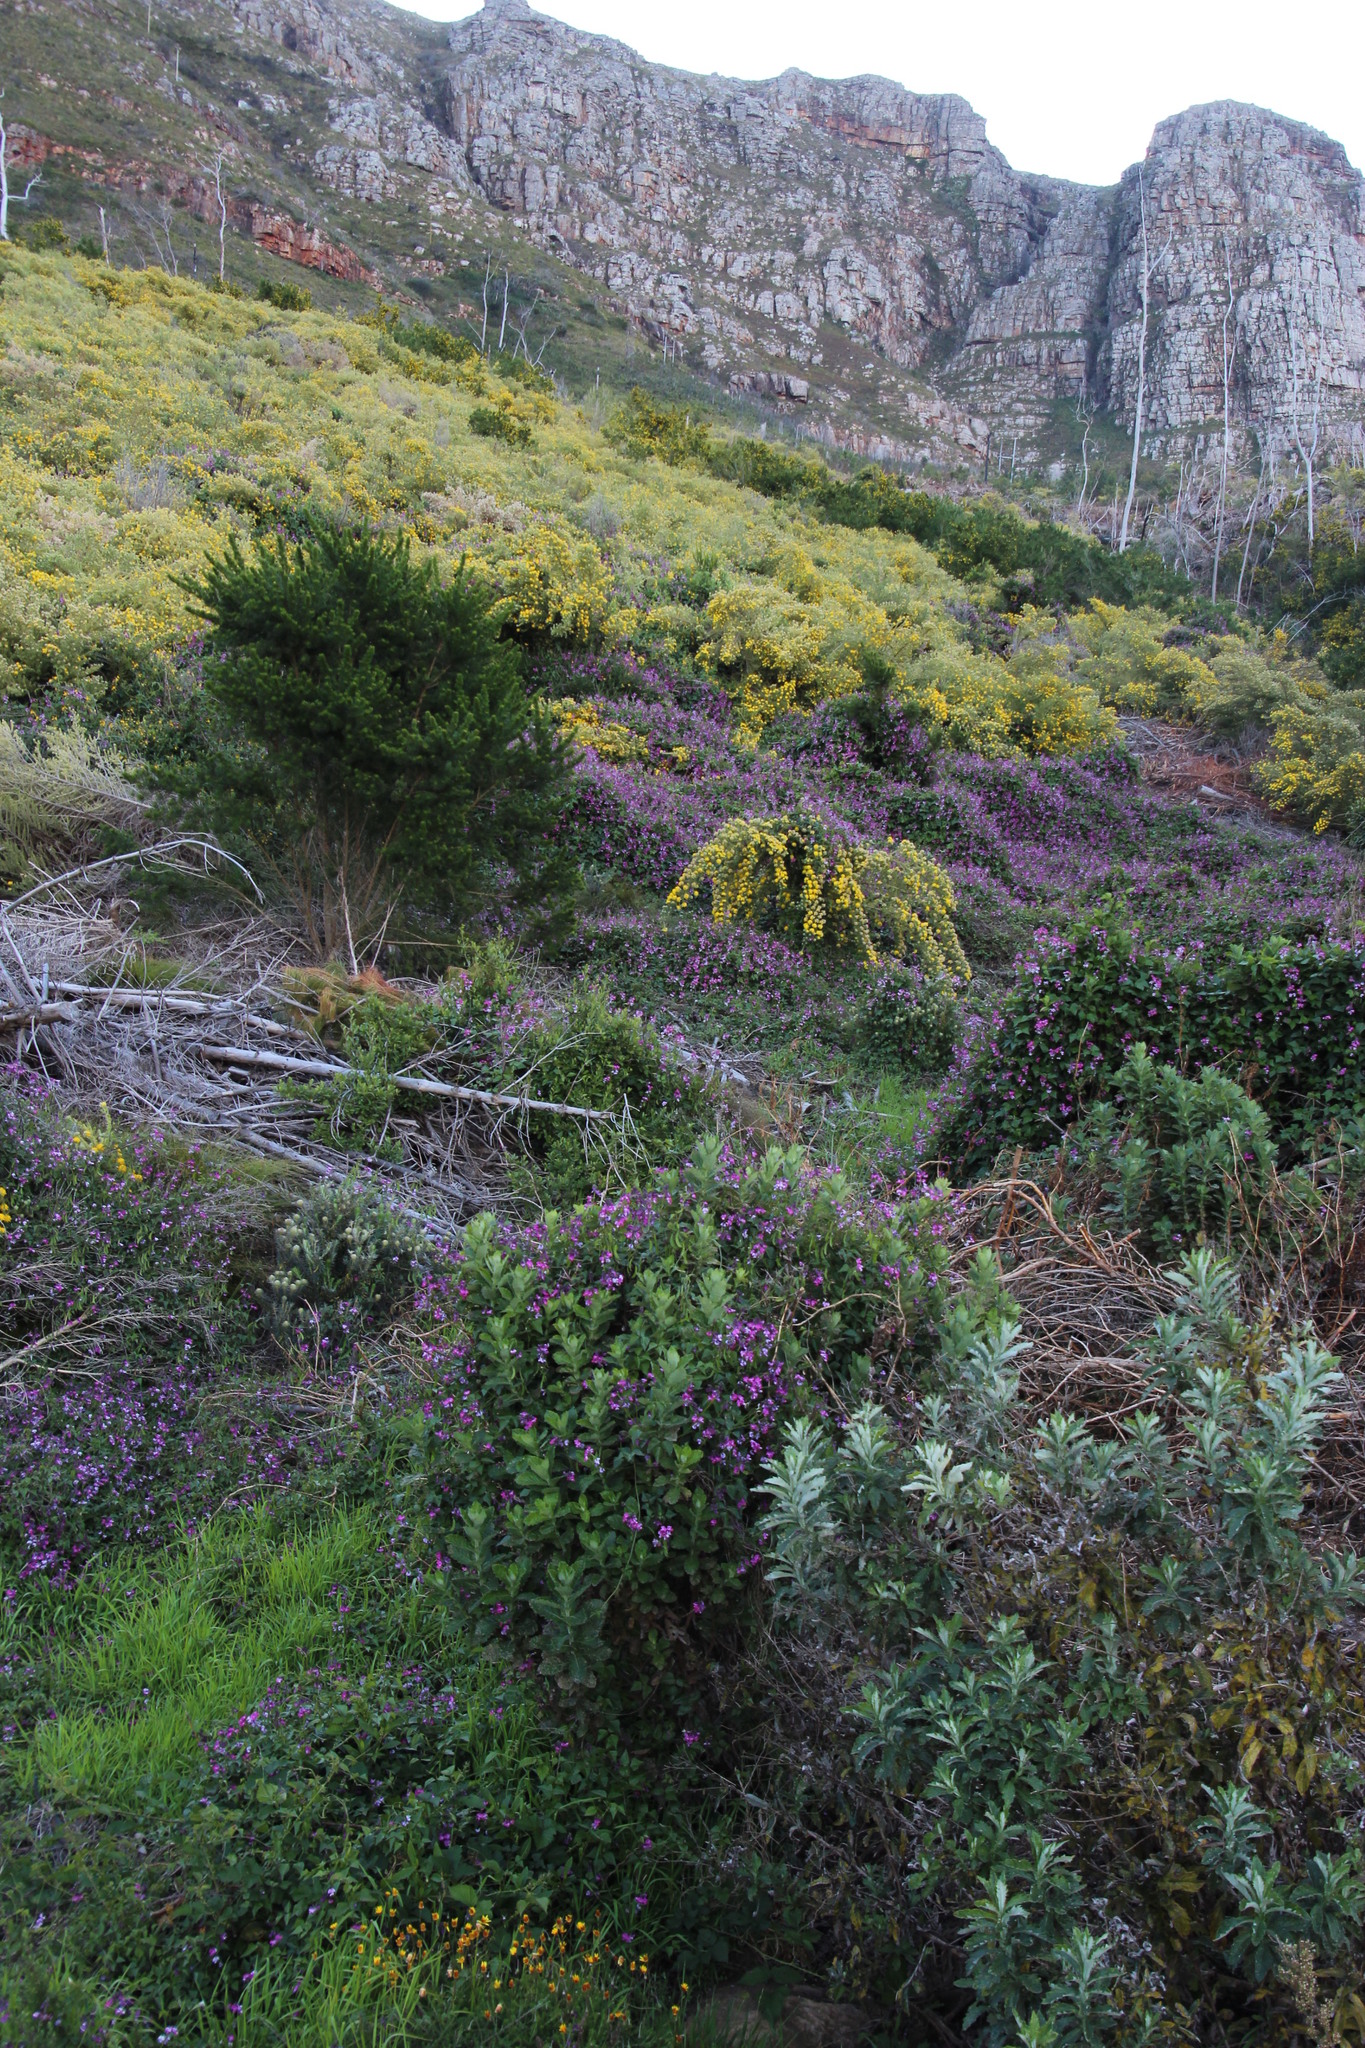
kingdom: Plantae
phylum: Tracheophyta
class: Magnoliopsida
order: Fabales
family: Fabaceae
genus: Dipogon
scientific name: Dipogon lignosus
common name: Okie bean
